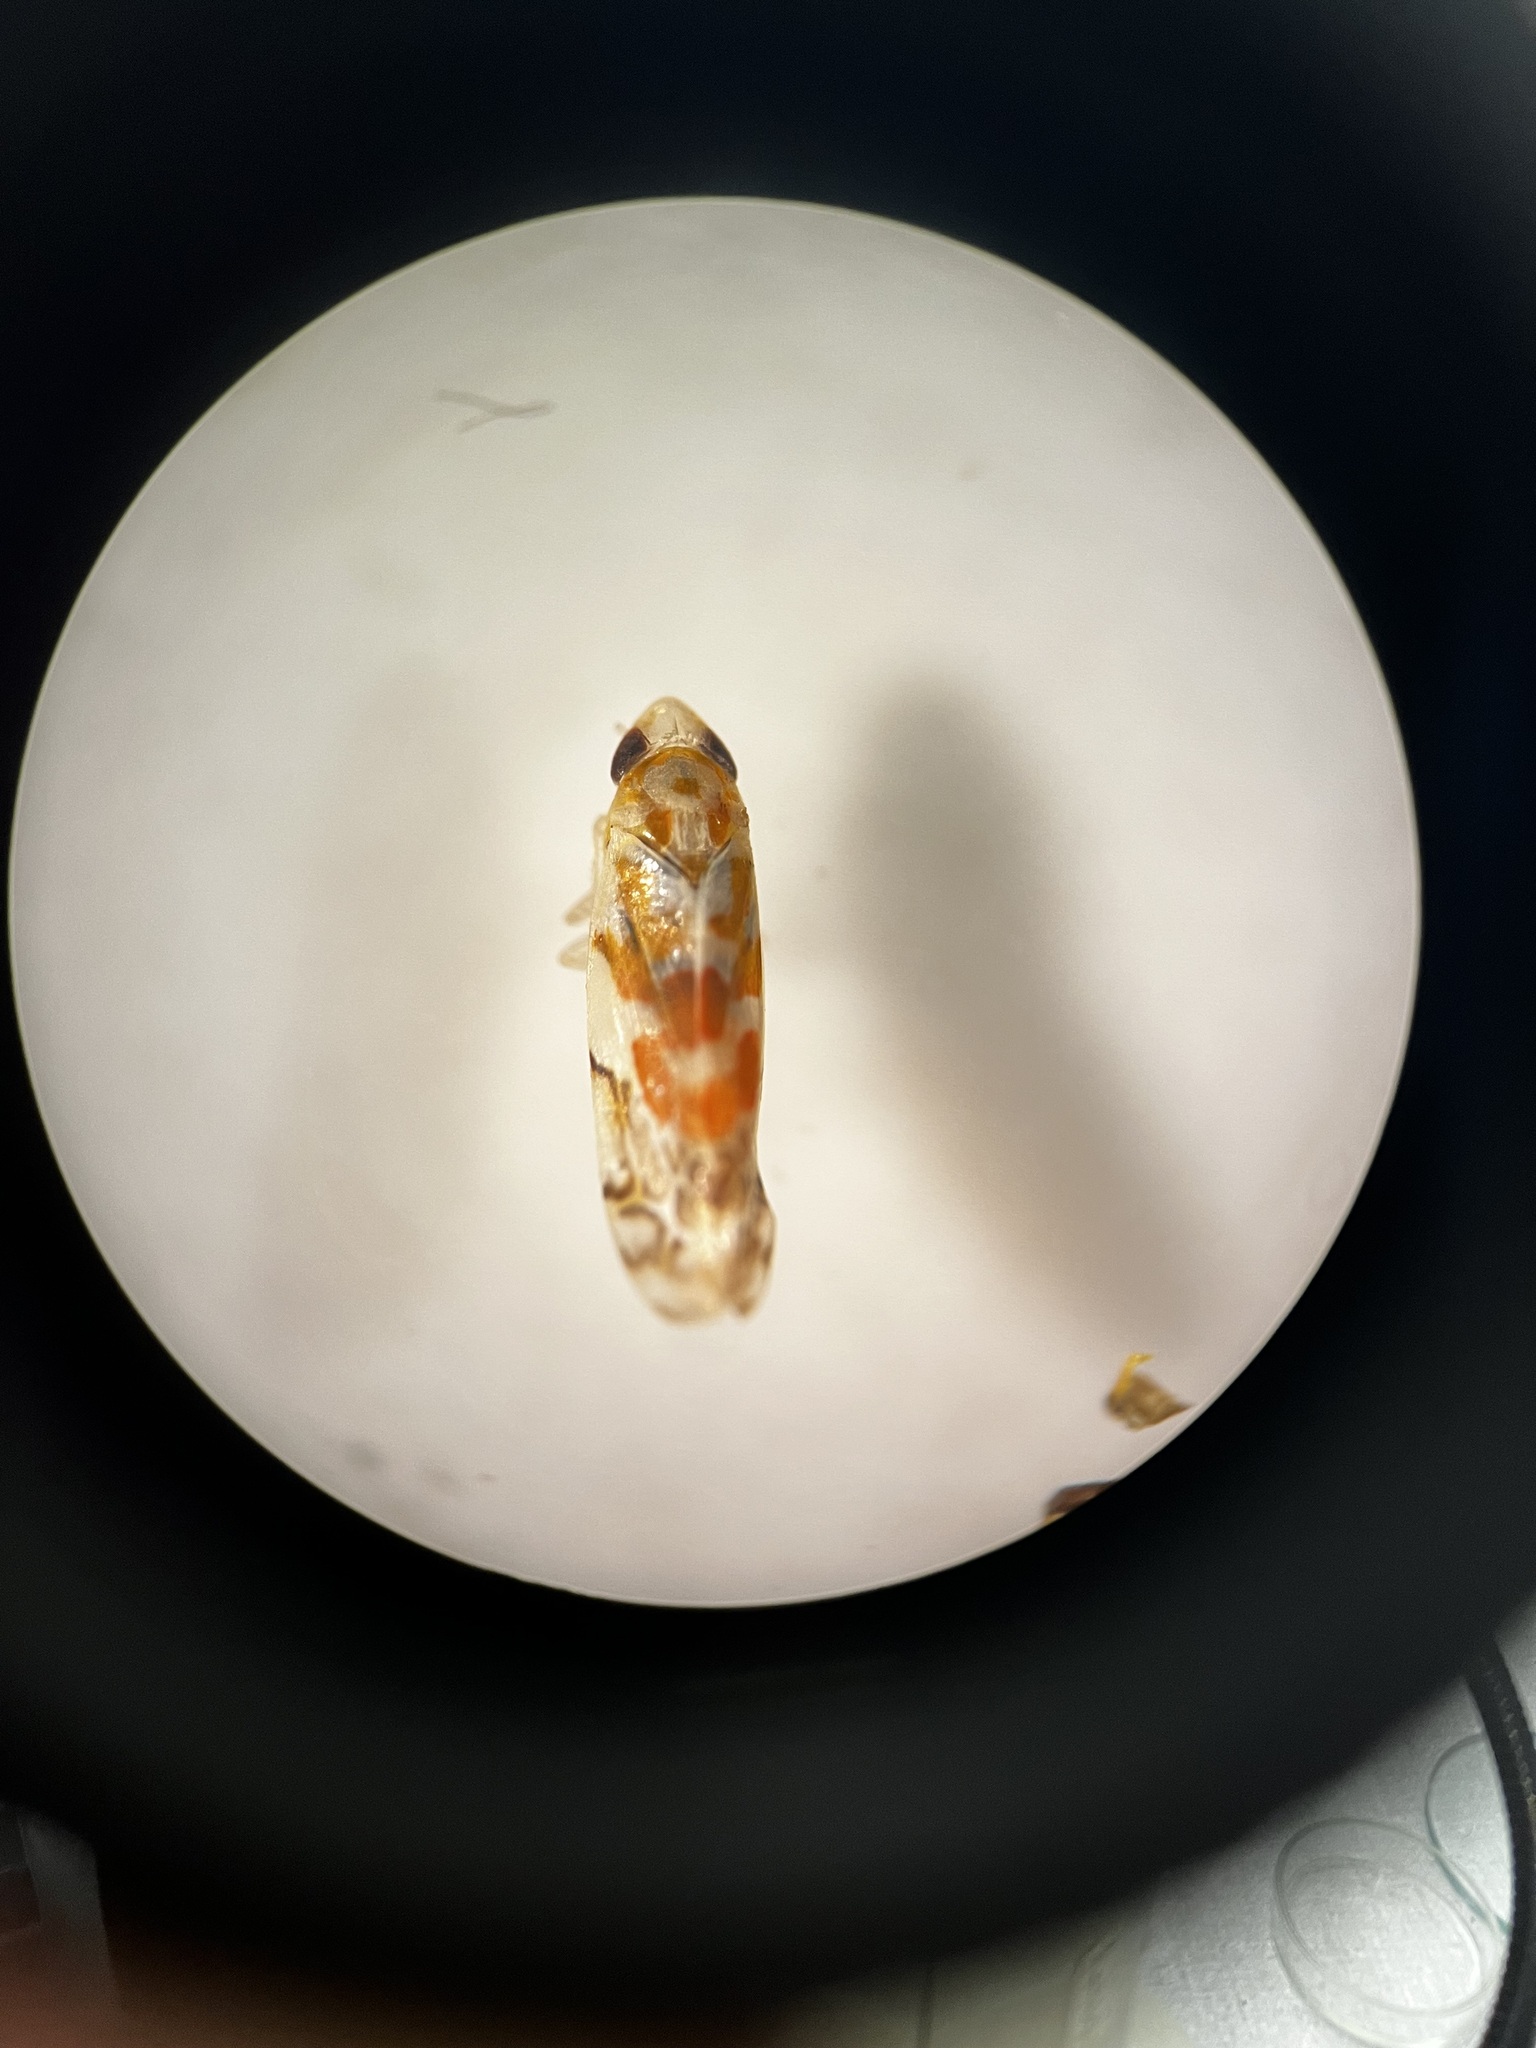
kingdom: Animalia
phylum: Arthropoda
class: Insecta
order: Hemiptera
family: Cicadellidae
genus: Typhlocyba
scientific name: Typhlocyba quercus
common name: Leafhopper
